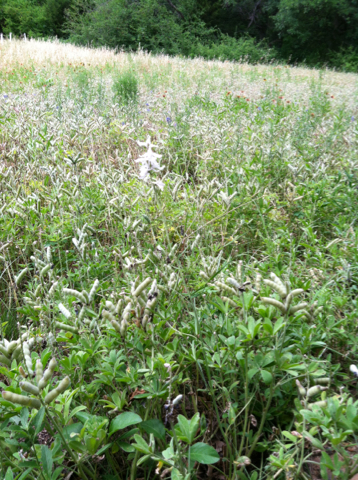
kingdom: Plantae
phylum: Tracheophyta
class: Magnoliopsida
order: Ranunculales
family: Ranunculaceae
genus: Delphinium
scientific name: Delphinium carolinianum
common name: Carolina larkspur
